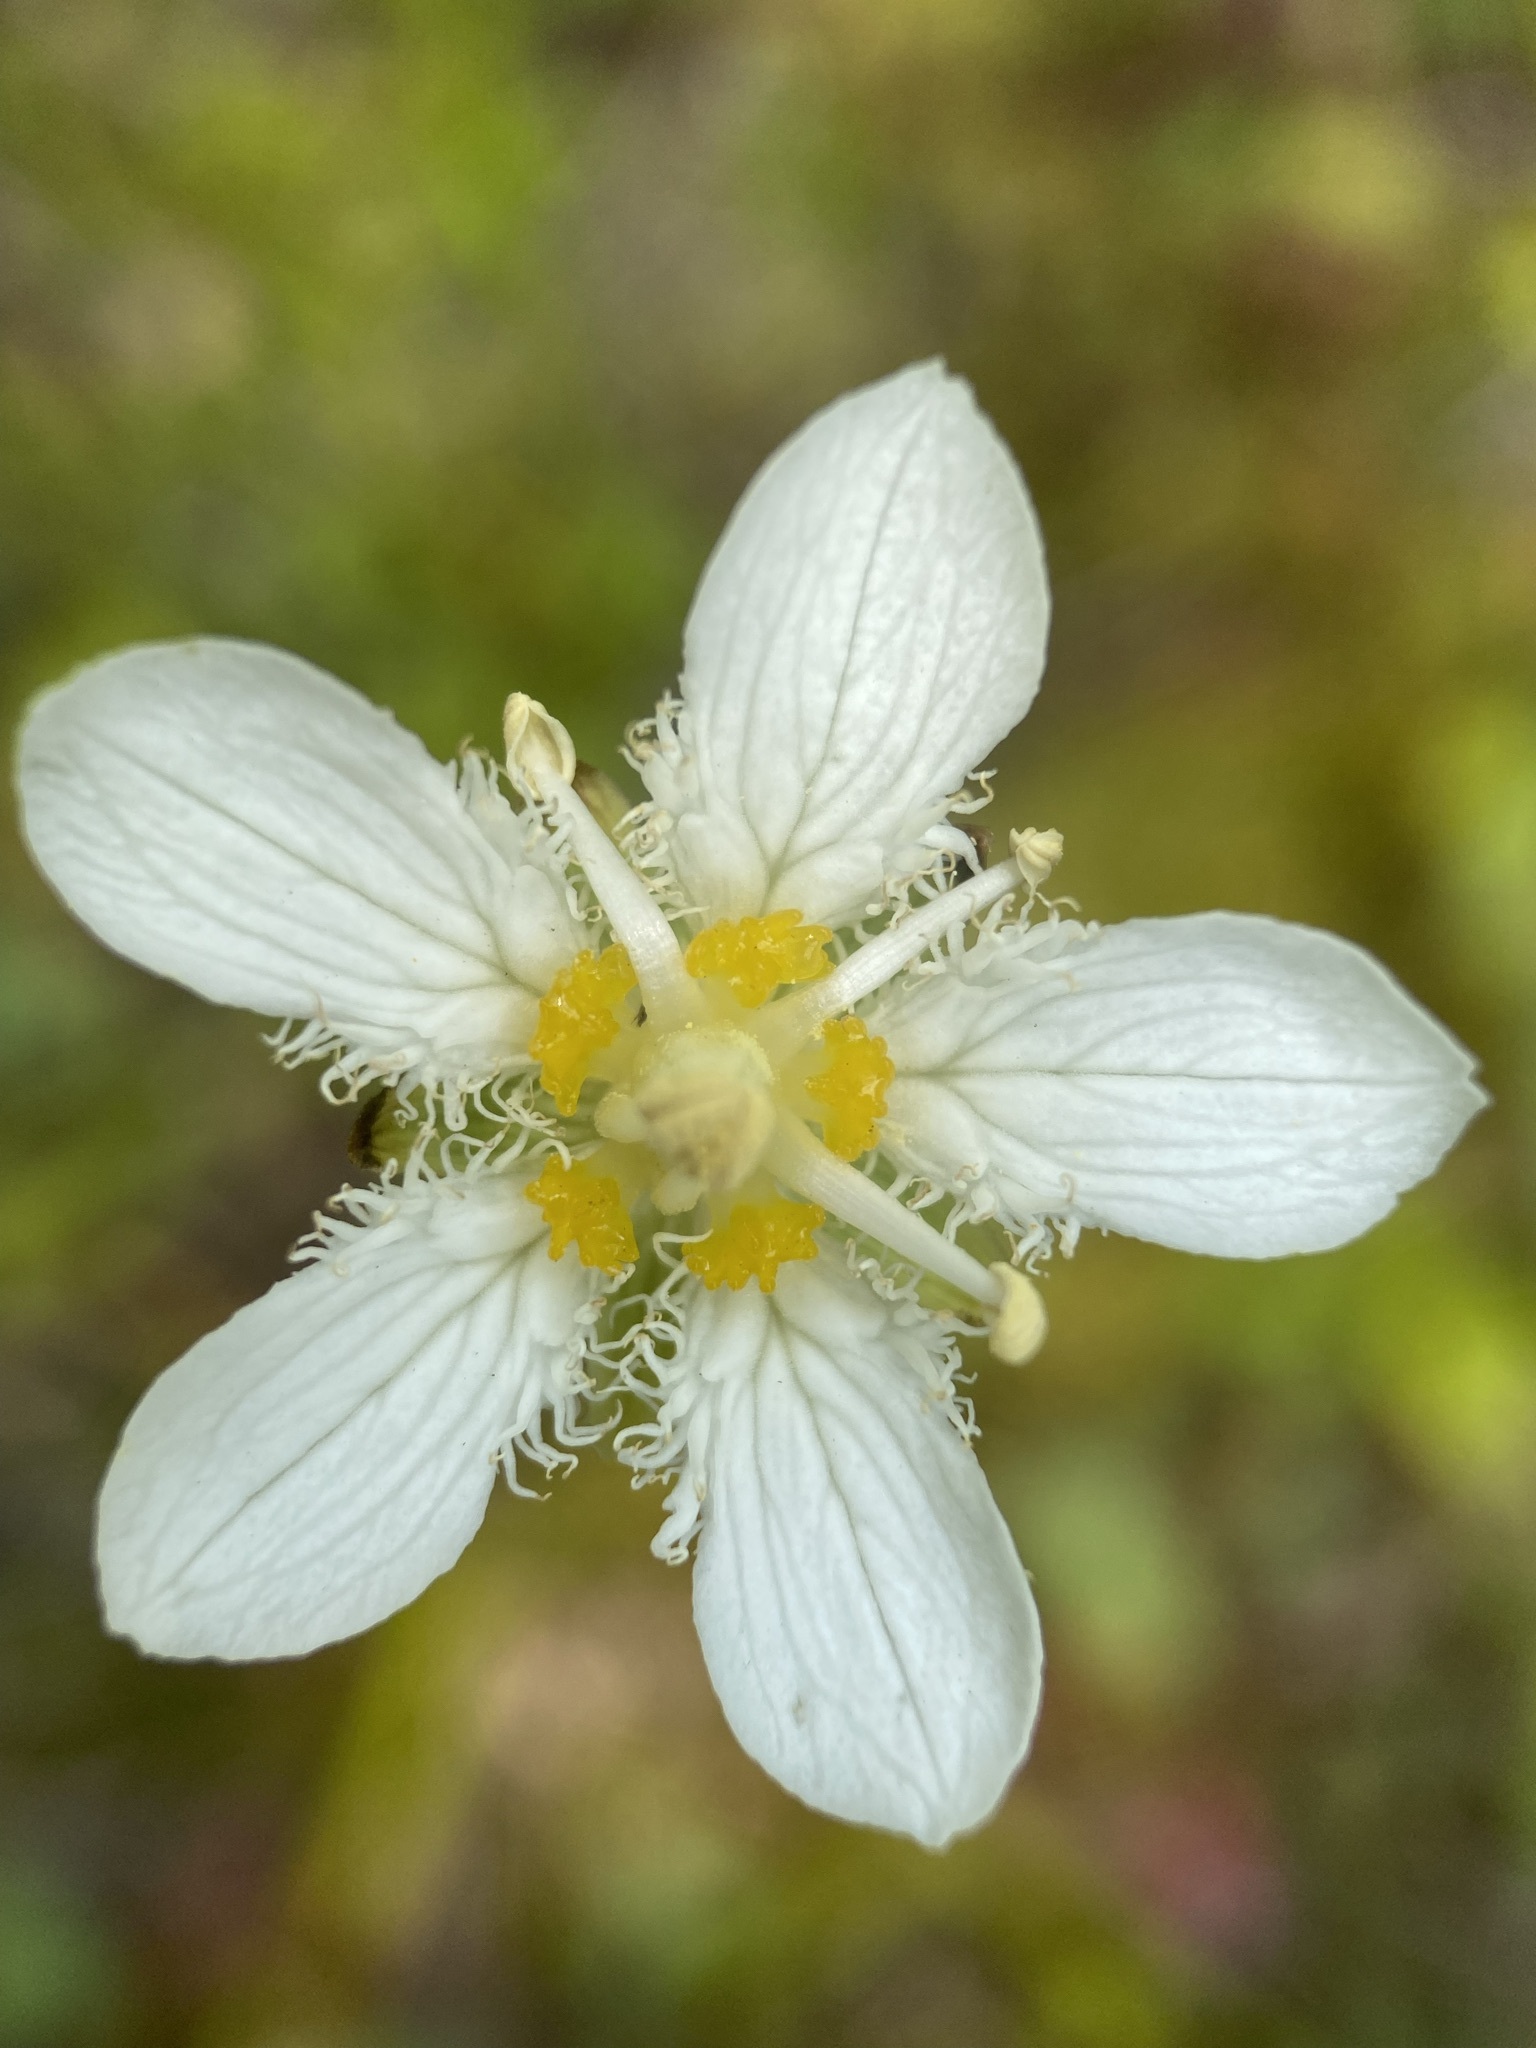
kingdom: Plantae
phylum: Tracheophyta
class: Magnoliopsida
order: Celastrales
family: Parnassiaceae
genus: Parnassia
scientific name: Parnassia fimbriata
